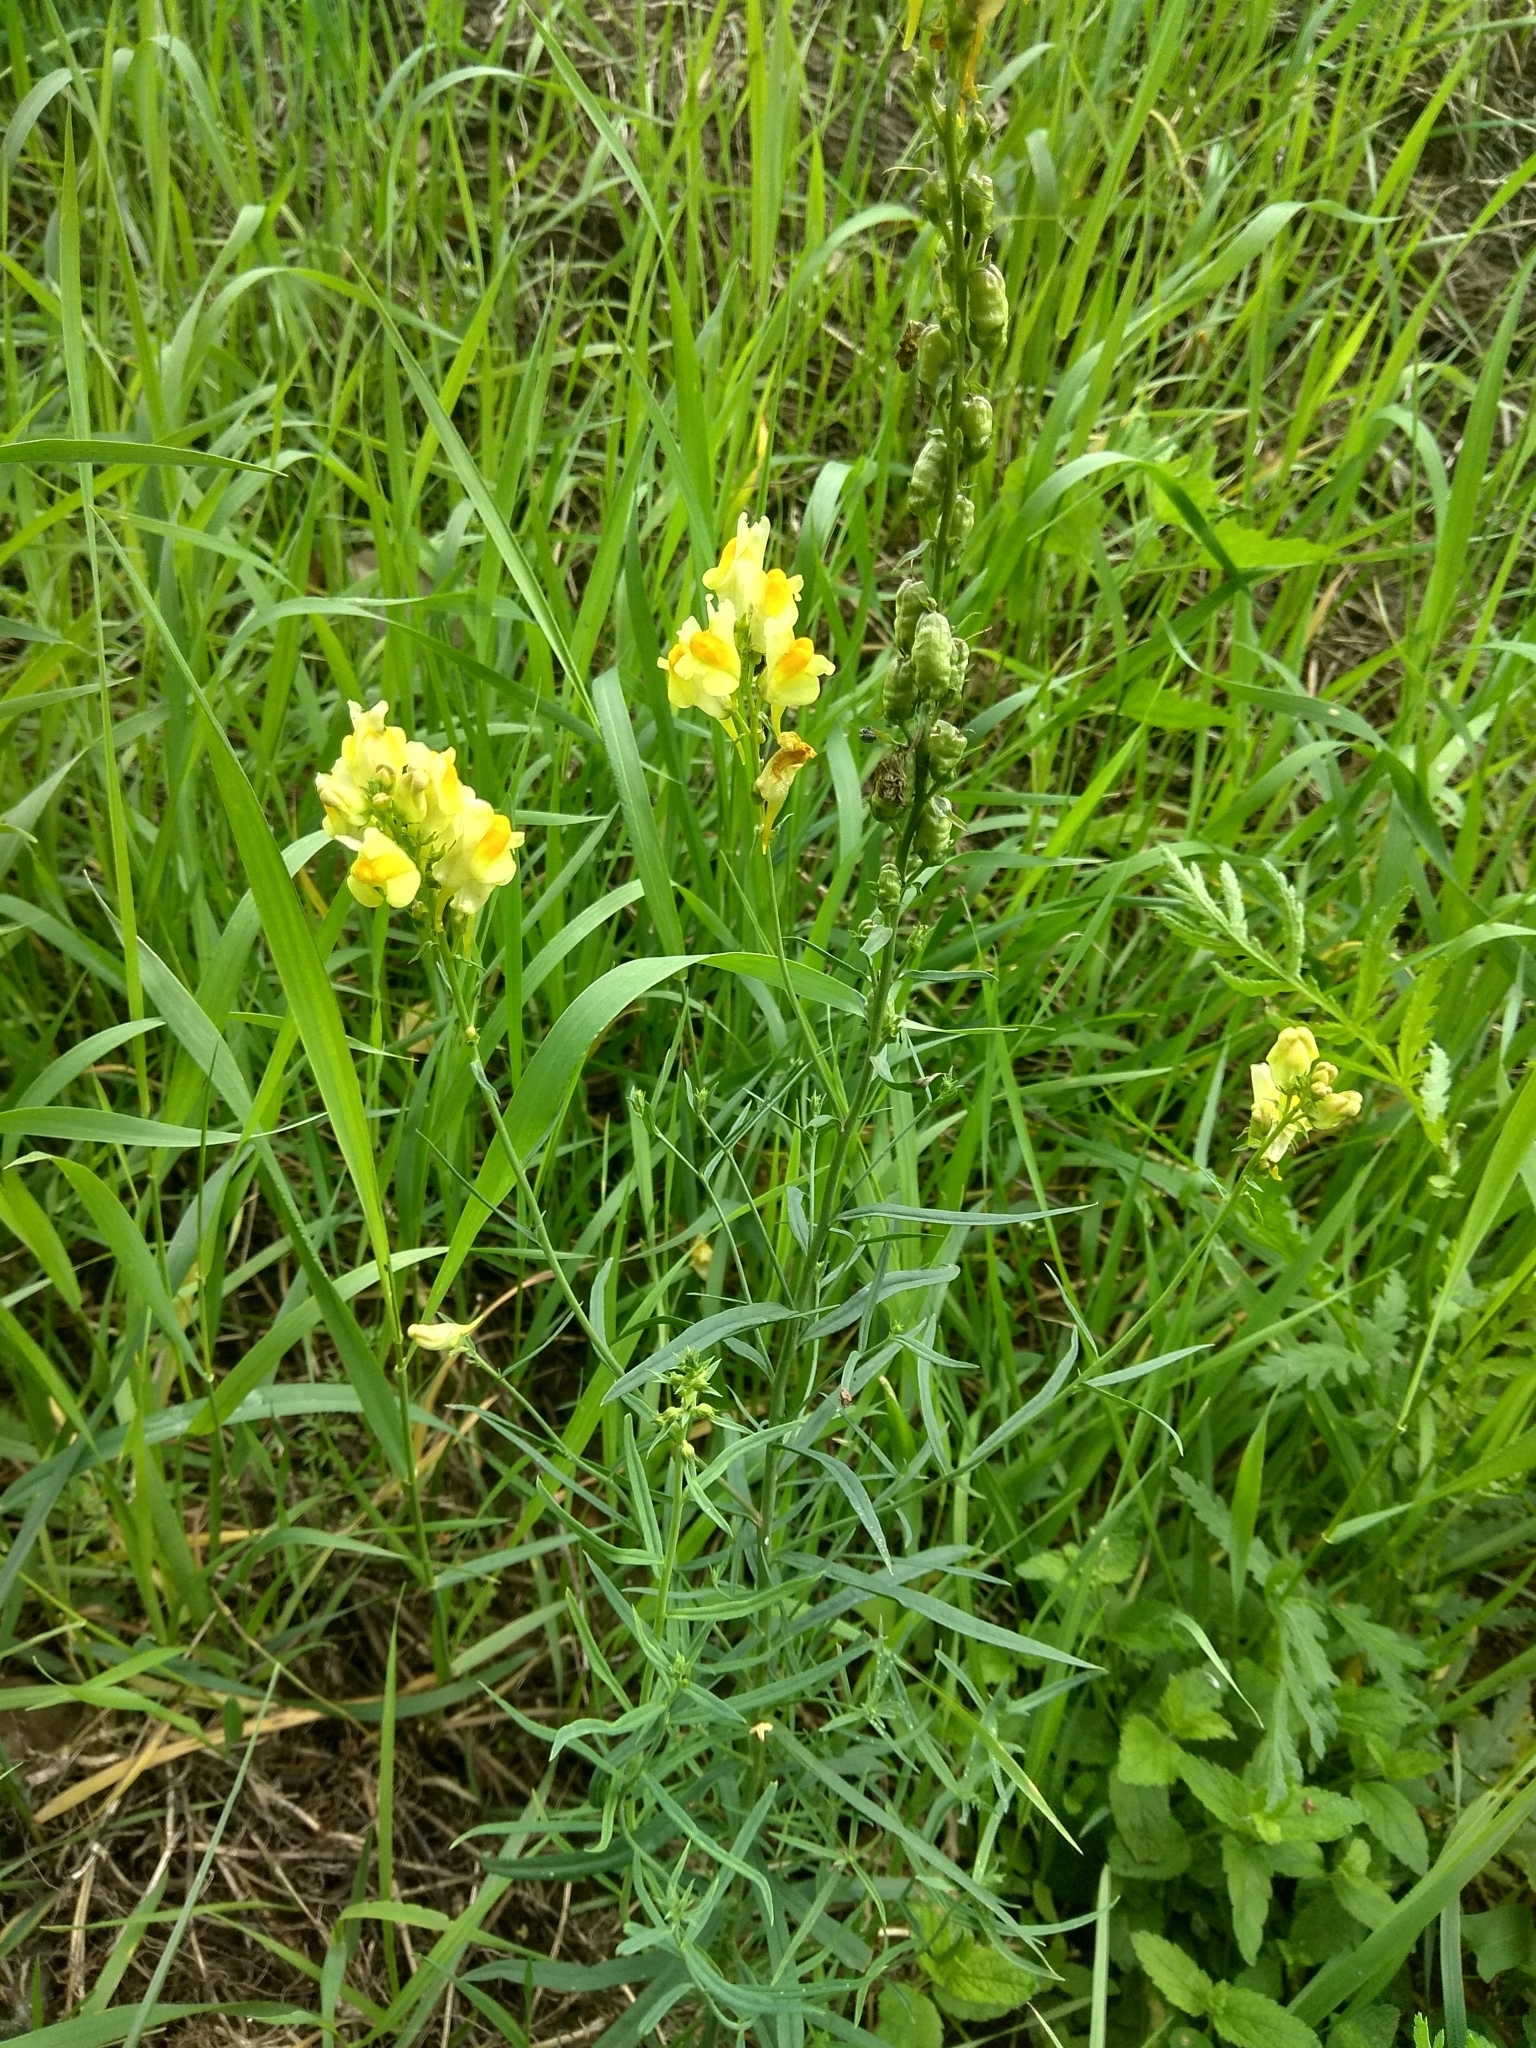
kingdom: Plantae
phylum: Tracheophyta
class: Magnoliopsida
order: Lamiales
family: Plantaginaceae
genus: Linaria
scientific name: Linaria vulgaris
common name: Butter and eggs
